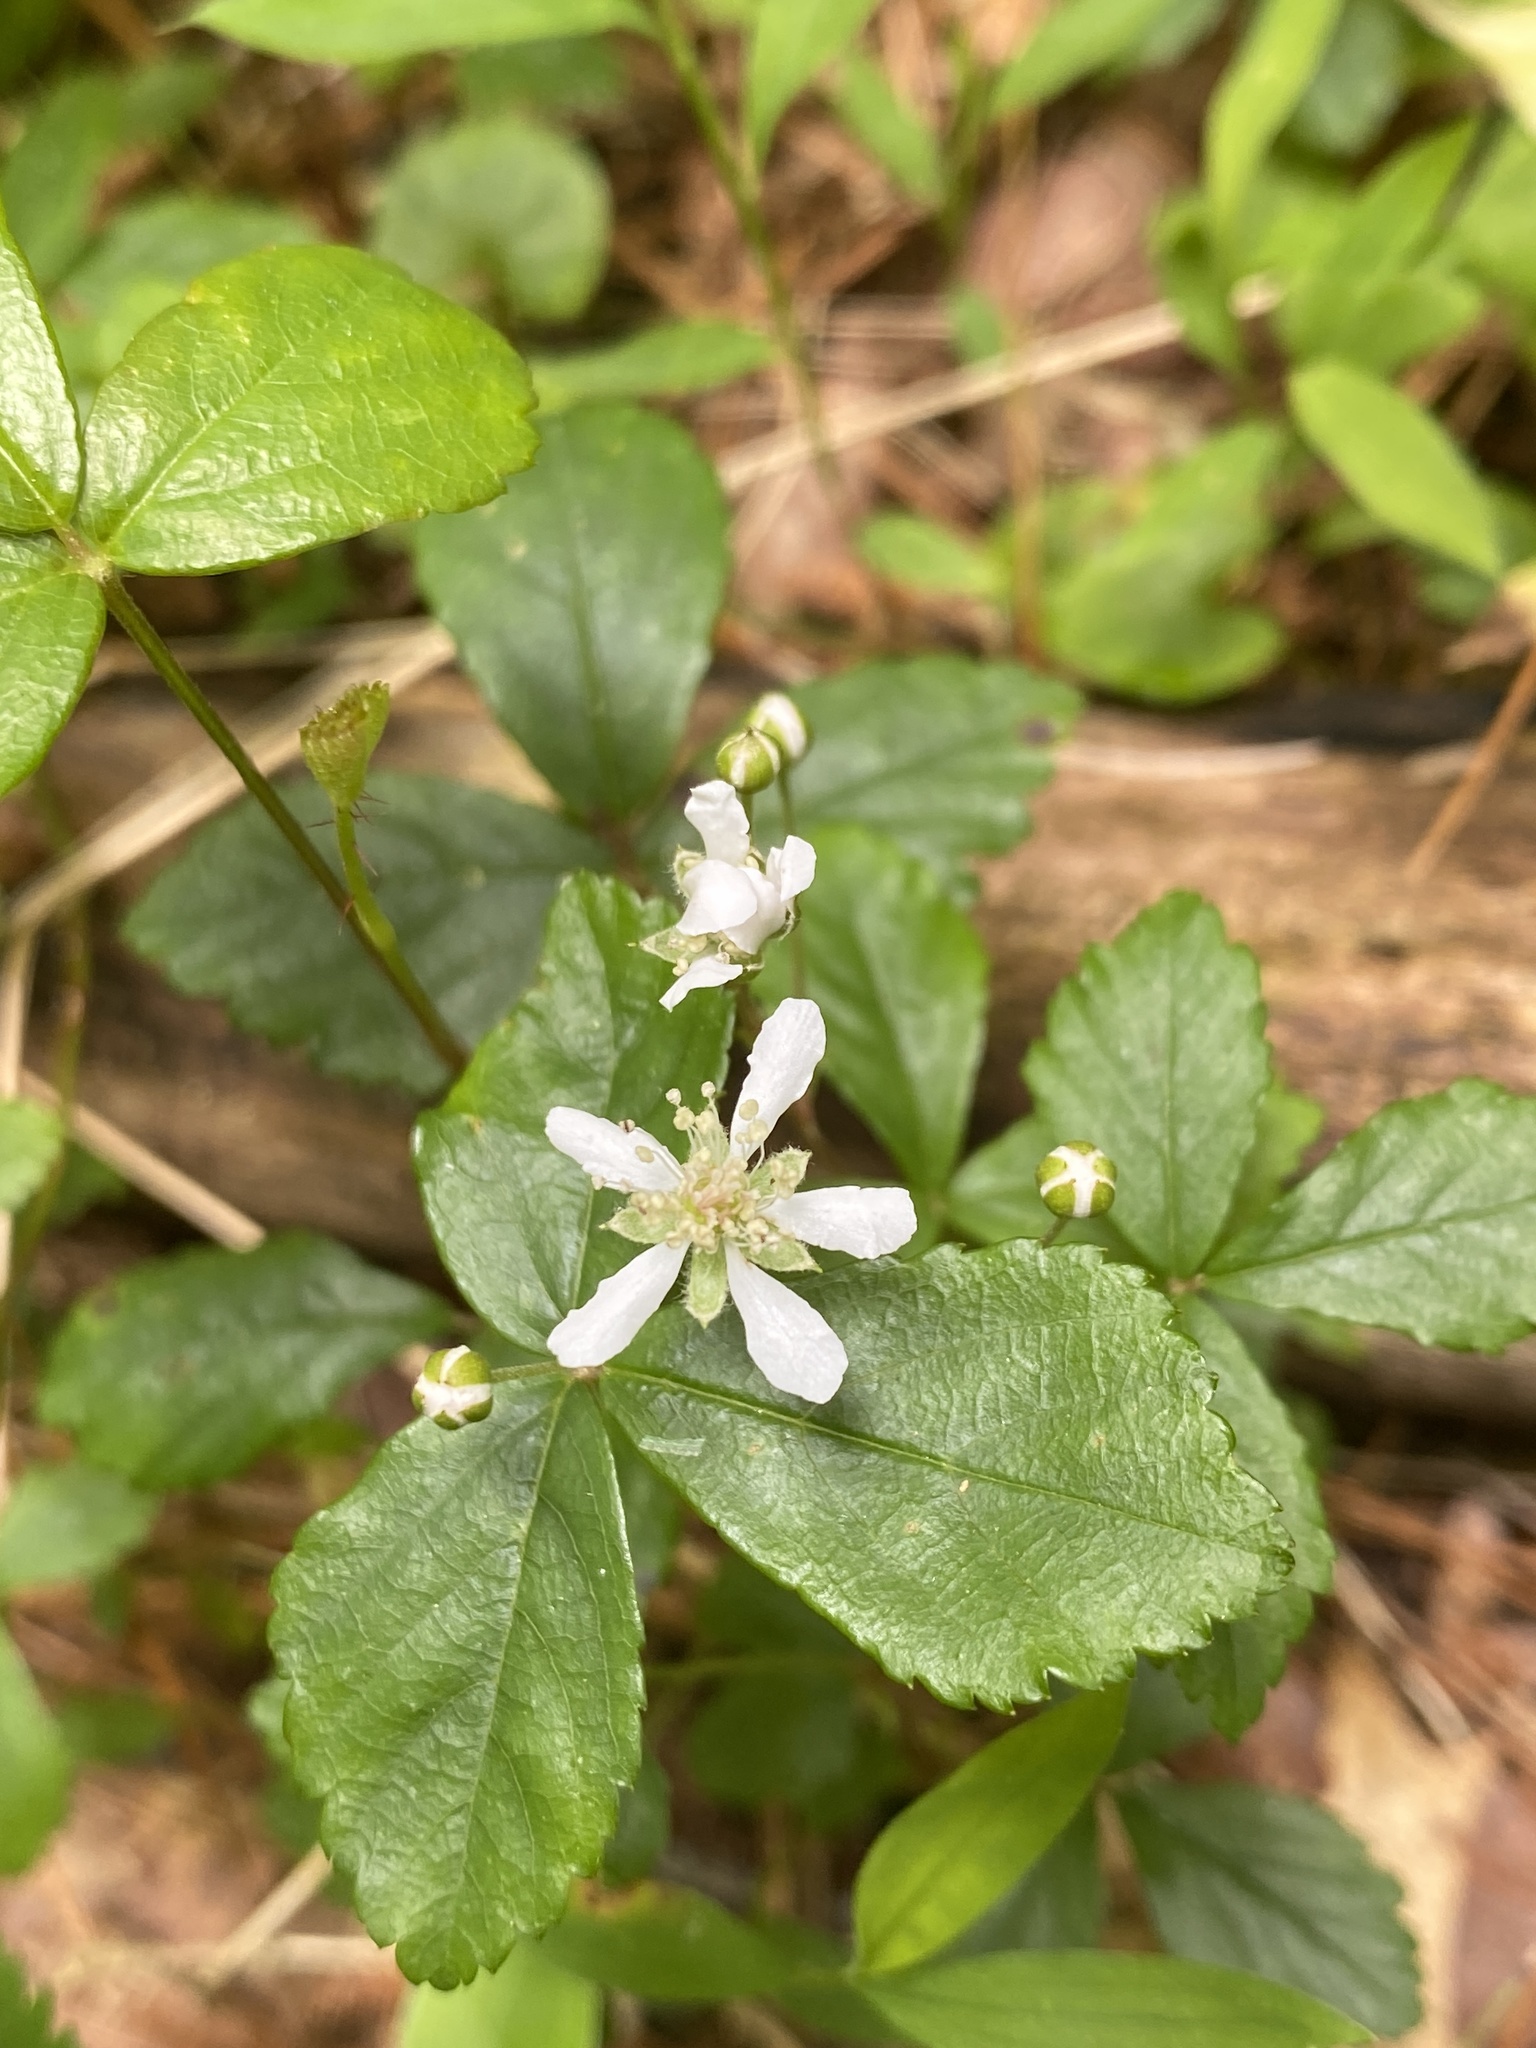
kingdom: Plantae
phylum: Tracheophyta
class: Magnoliopsida
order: Rosales
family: Rosaceae
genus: Rubus
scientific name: Rubus hispidus
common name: Running blackberry
